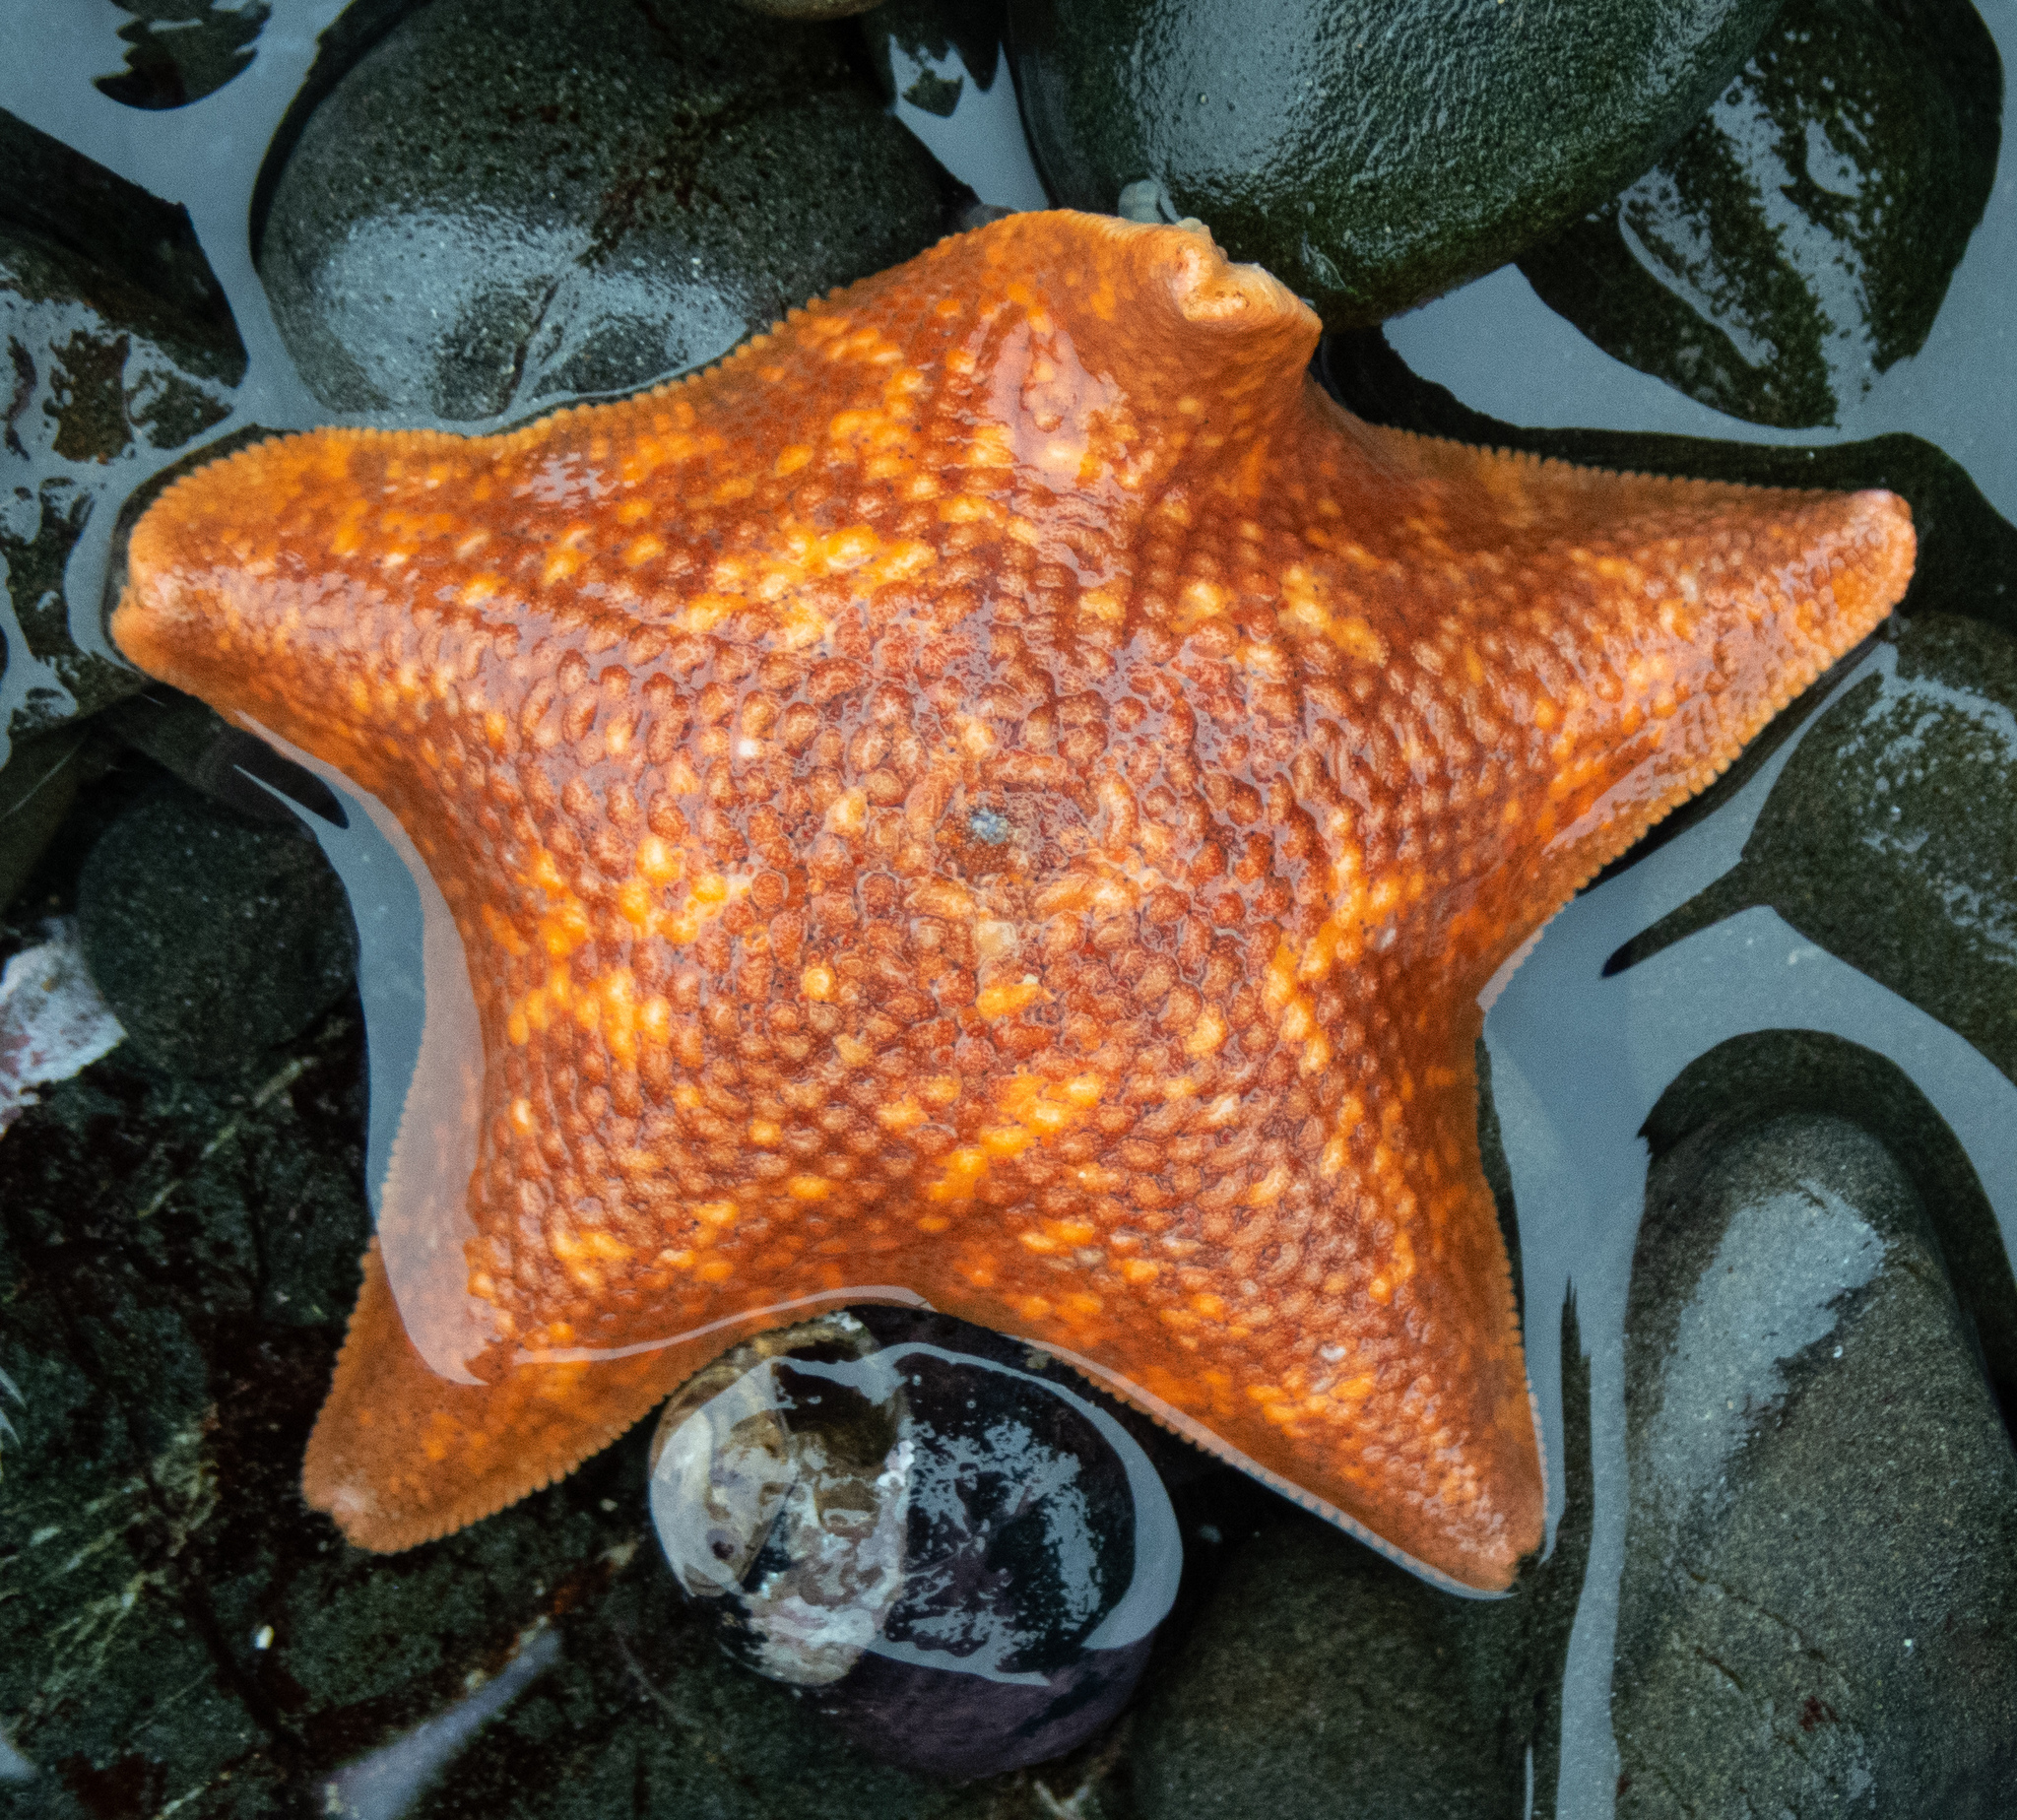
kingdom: Animalia
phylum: Echinodermata
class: Asteroidea
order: Valvatida
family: Asterinidae
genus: Patiria
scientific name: Patiria miniata
